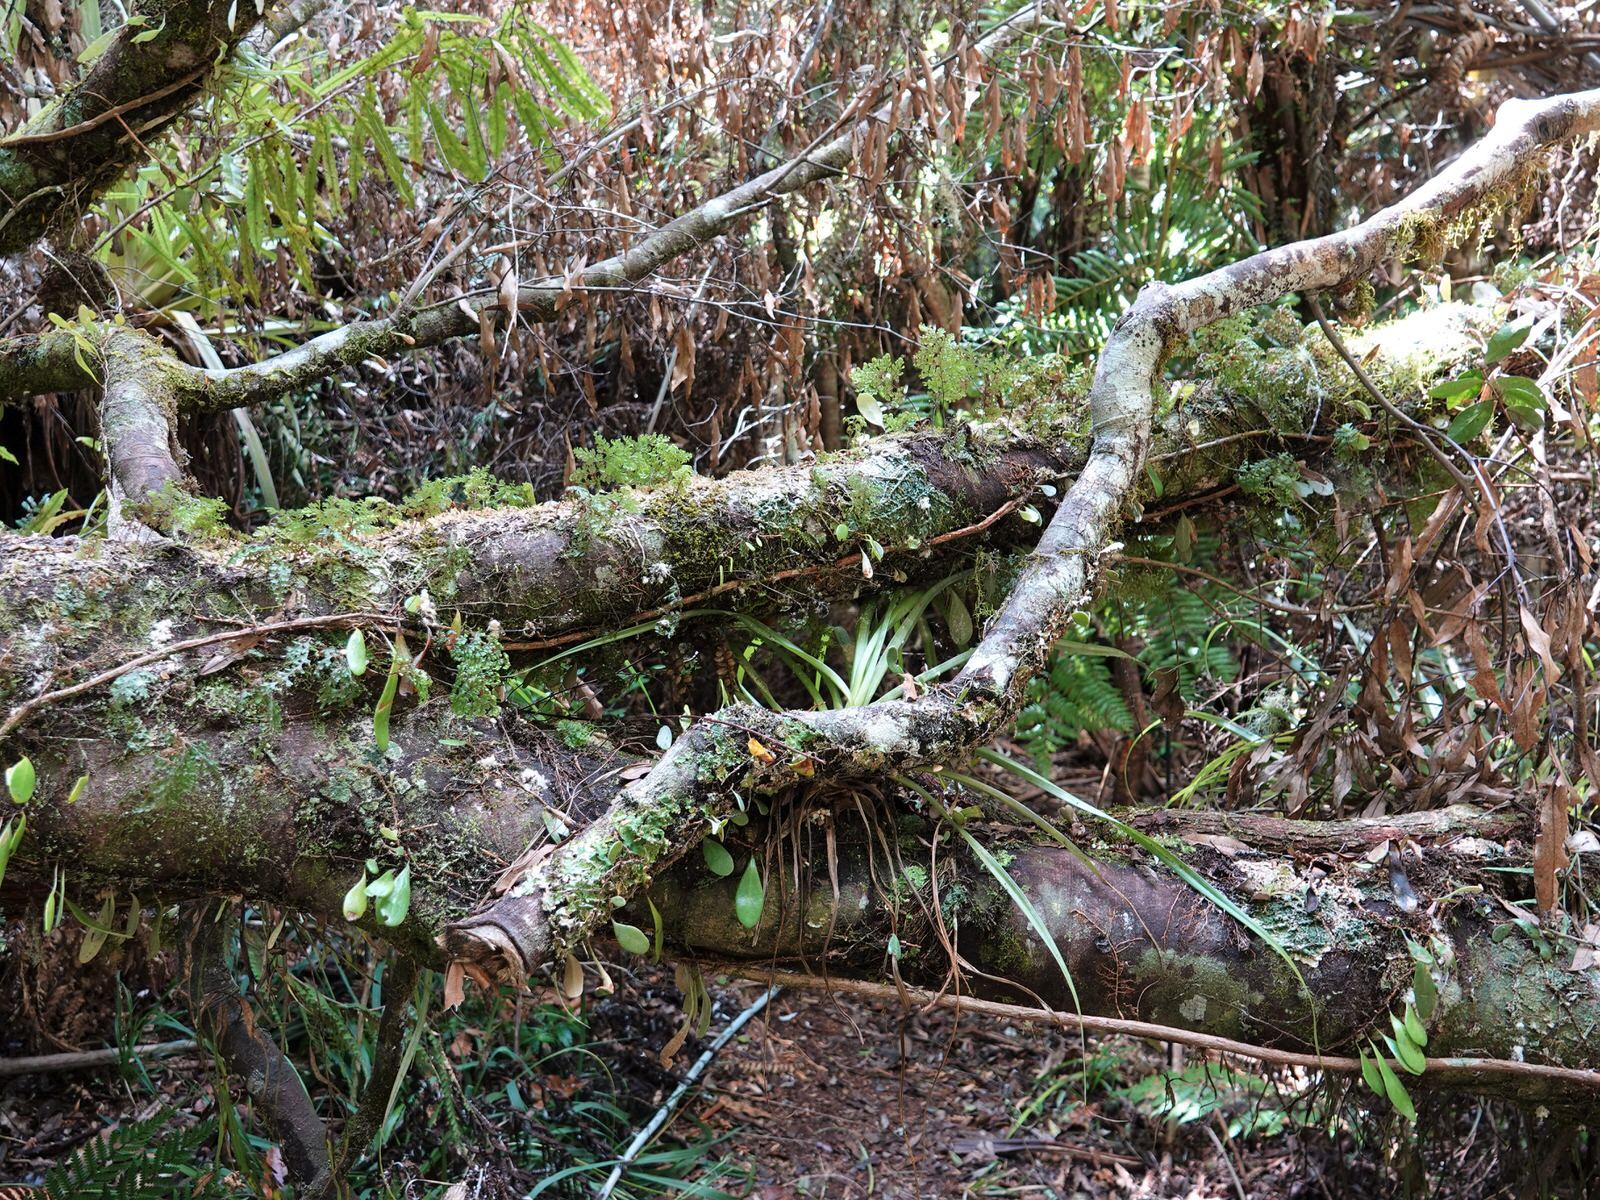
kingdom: Plantae
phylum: Tracheophyta
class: Polypodiopsida
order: Hymenophyllales
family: Hymenophyllaceae
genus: Hymenophyllum
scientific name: Hymenophyllum sanguinolentum
